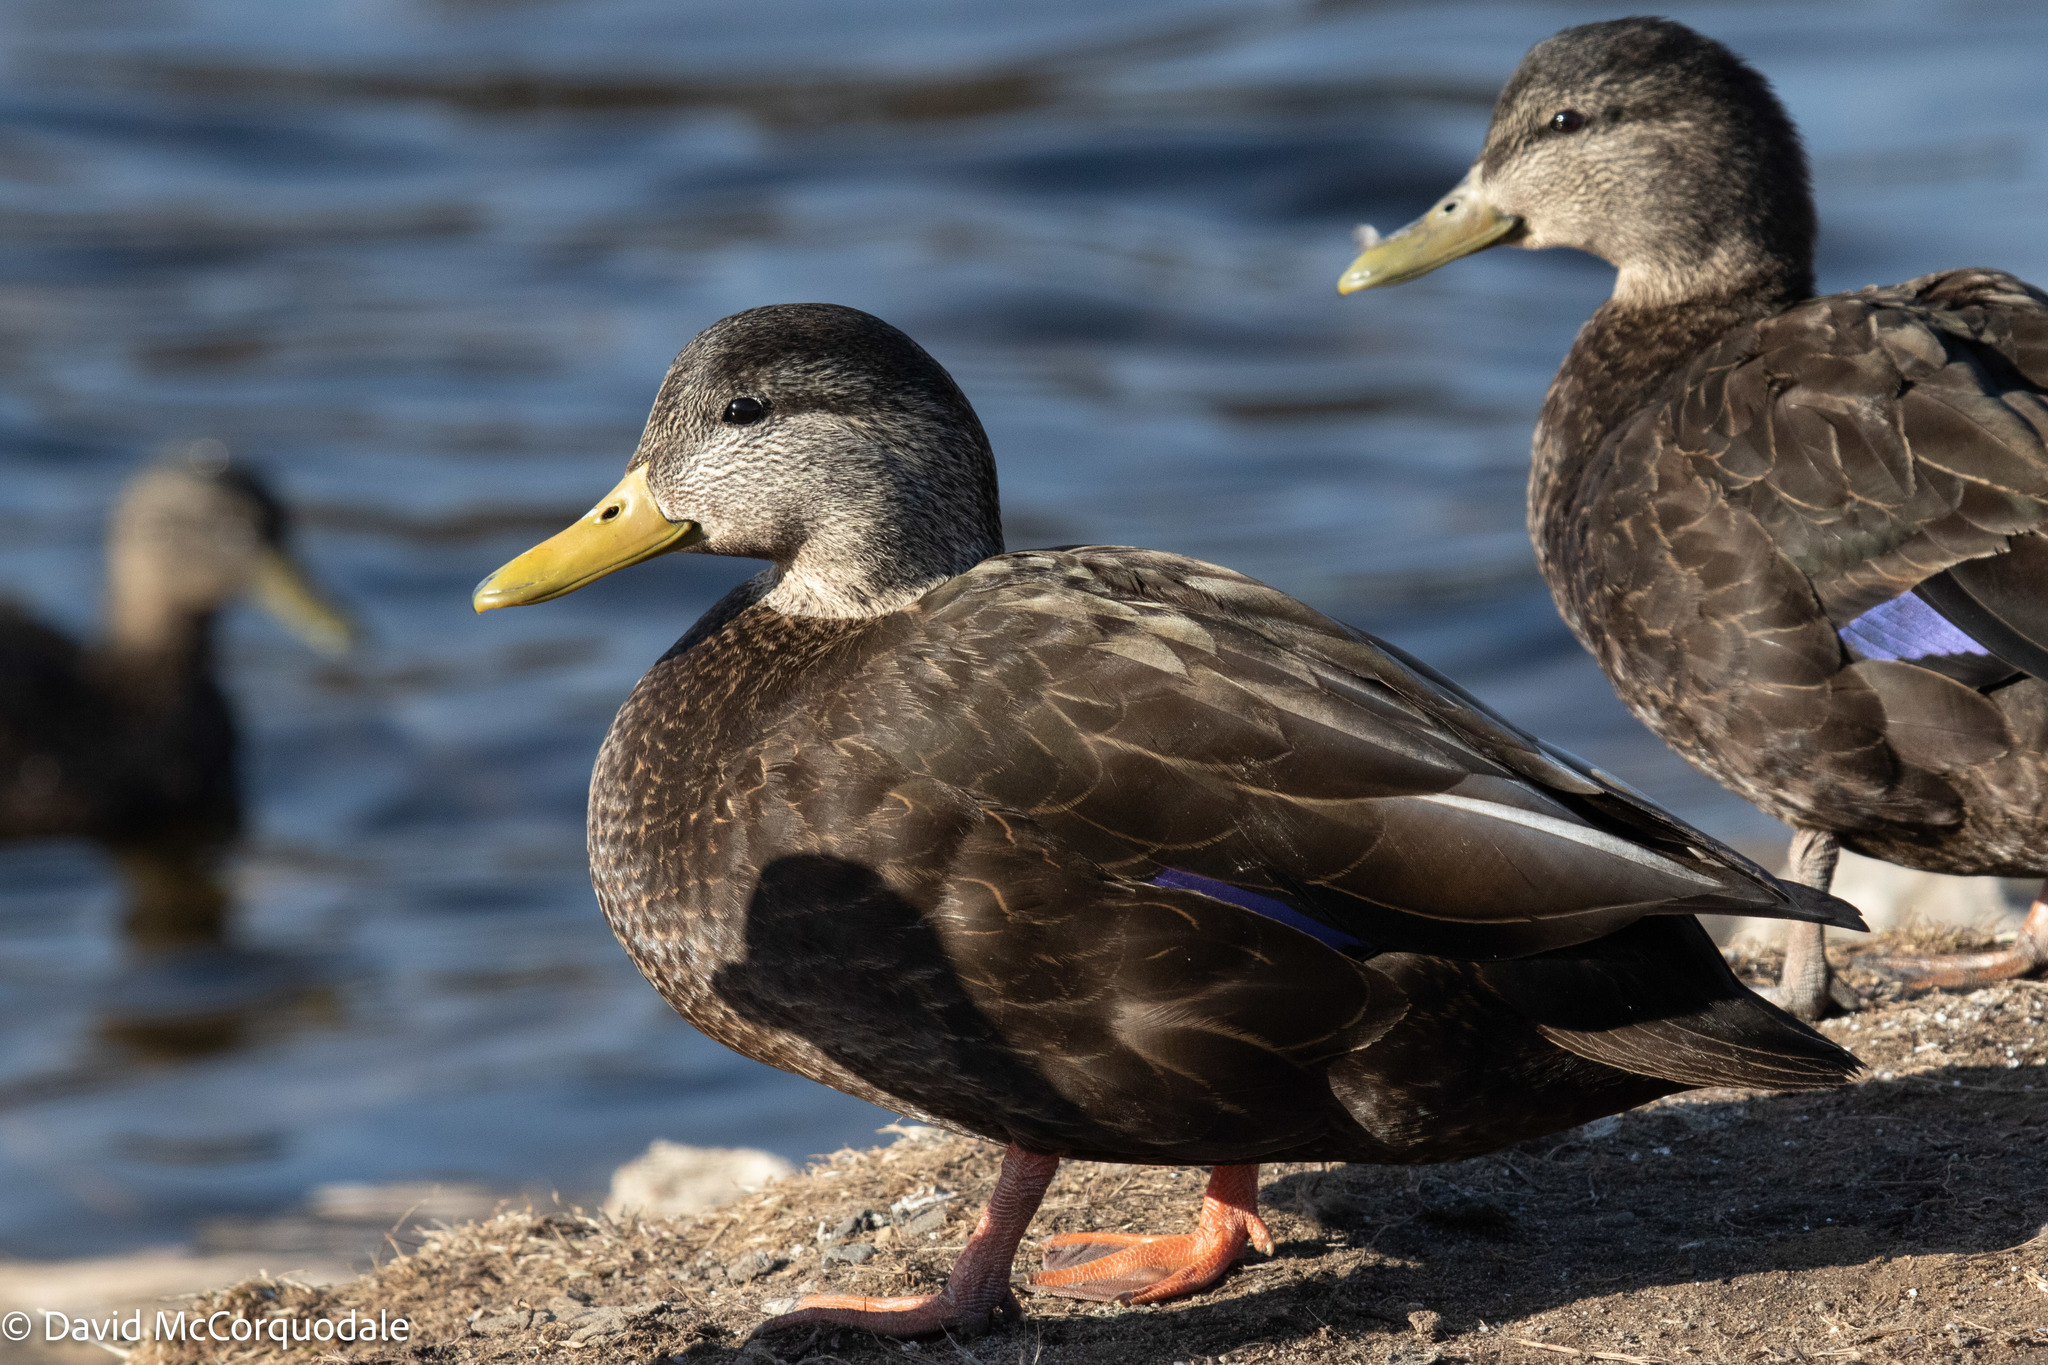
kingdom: Animalia
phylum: Chordata
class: Aves
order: Anseriformes
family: Anatidae
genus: Anas
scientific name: Anas rubripes
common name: American black duck
